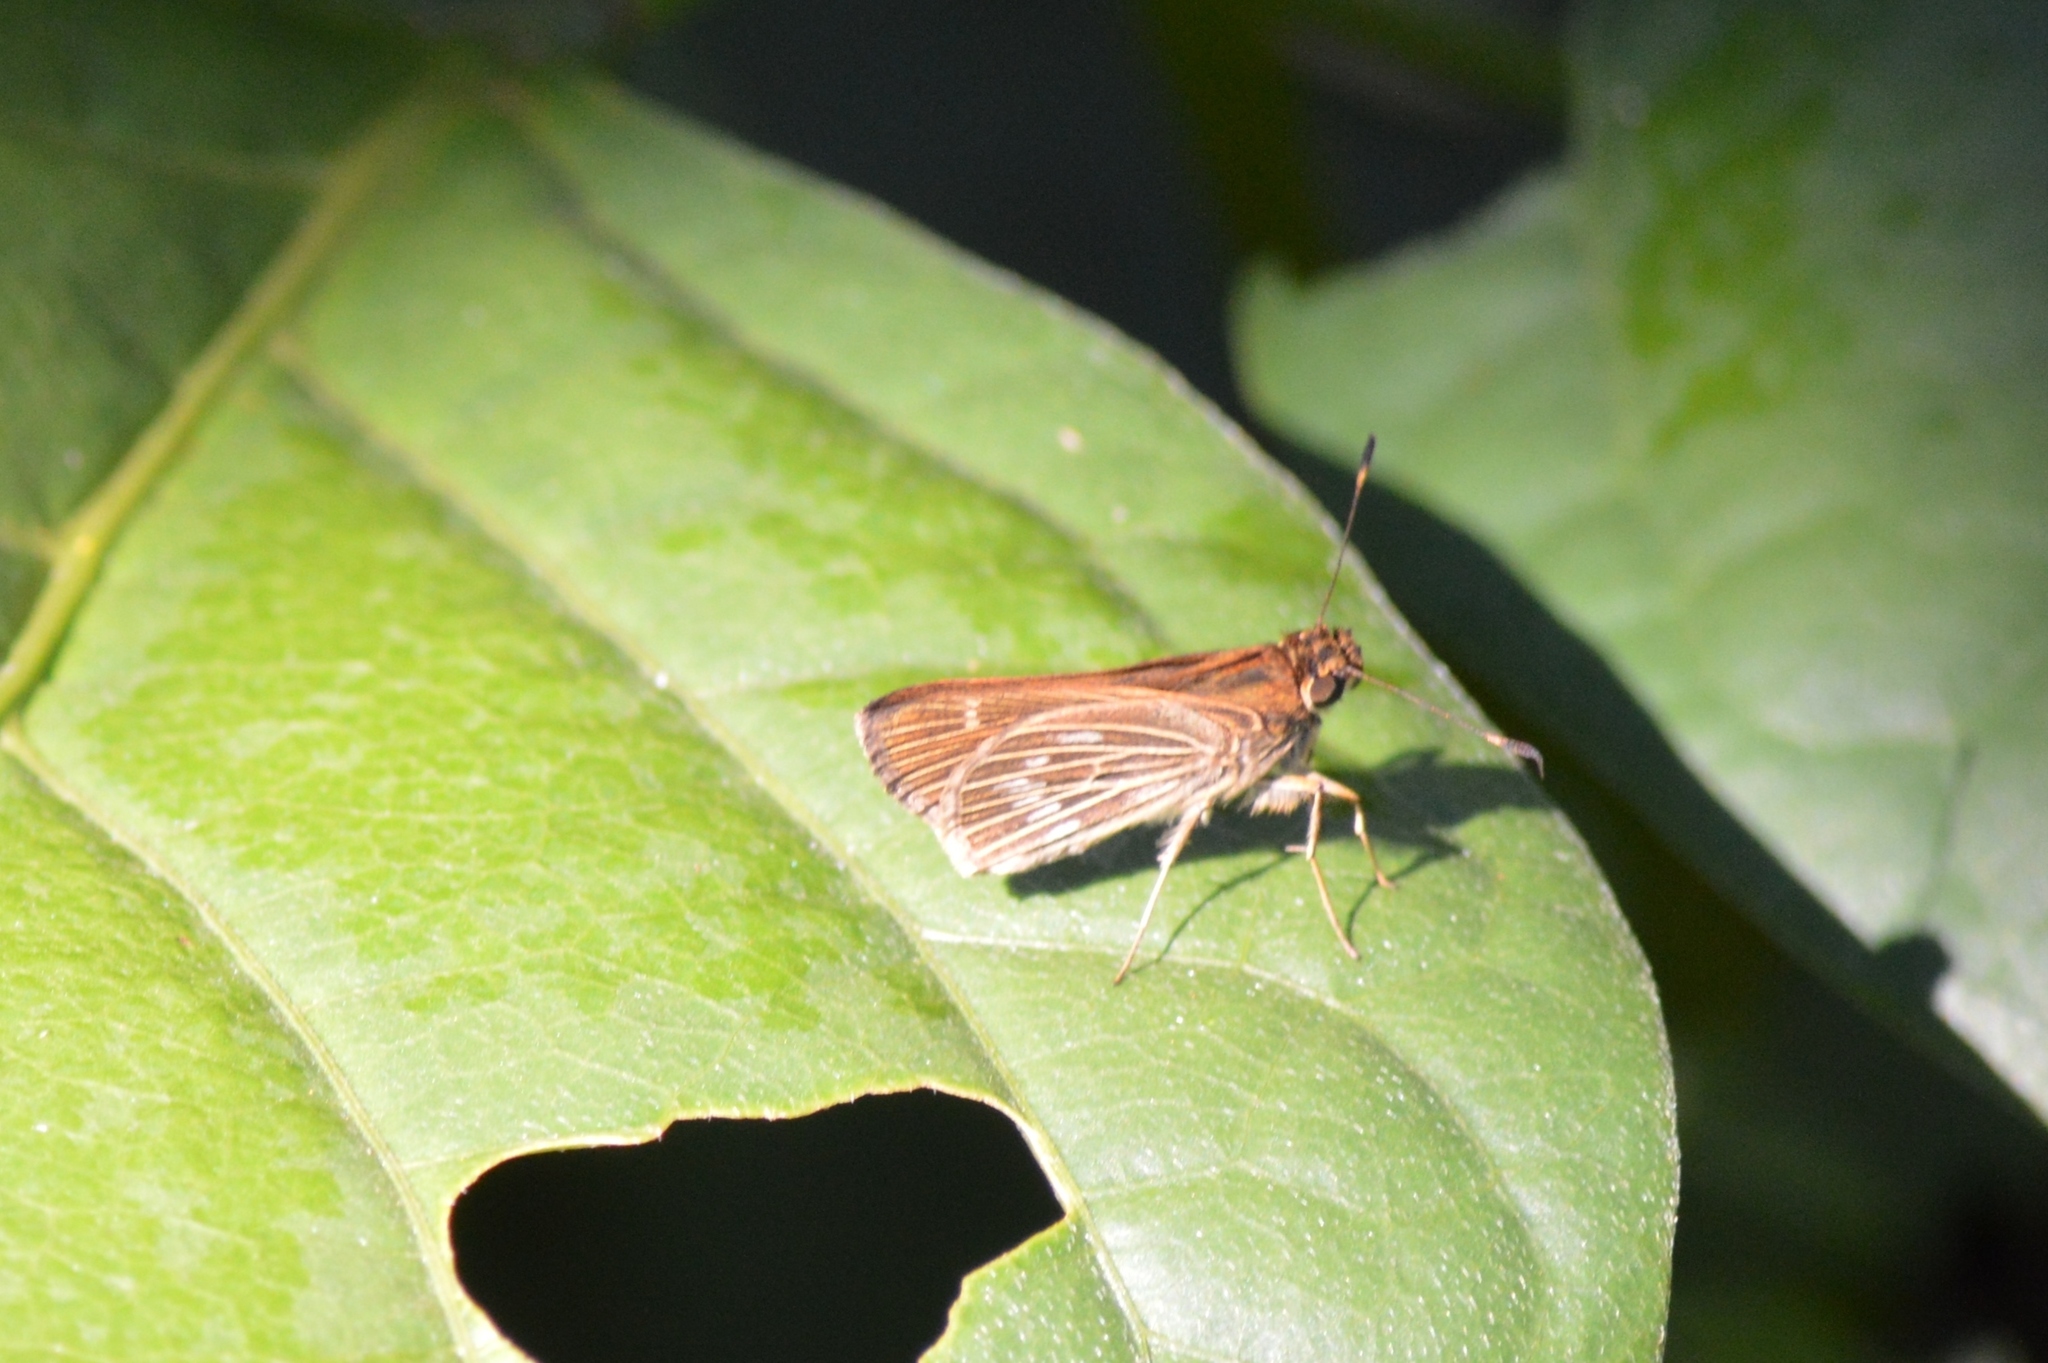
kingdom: Animalia
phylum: Arthropoda
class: Insecta
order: Lepidoptera
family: Hesperiidae
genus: Vehilius
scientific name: Vehilius stictomenes
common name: Pasture skipper
